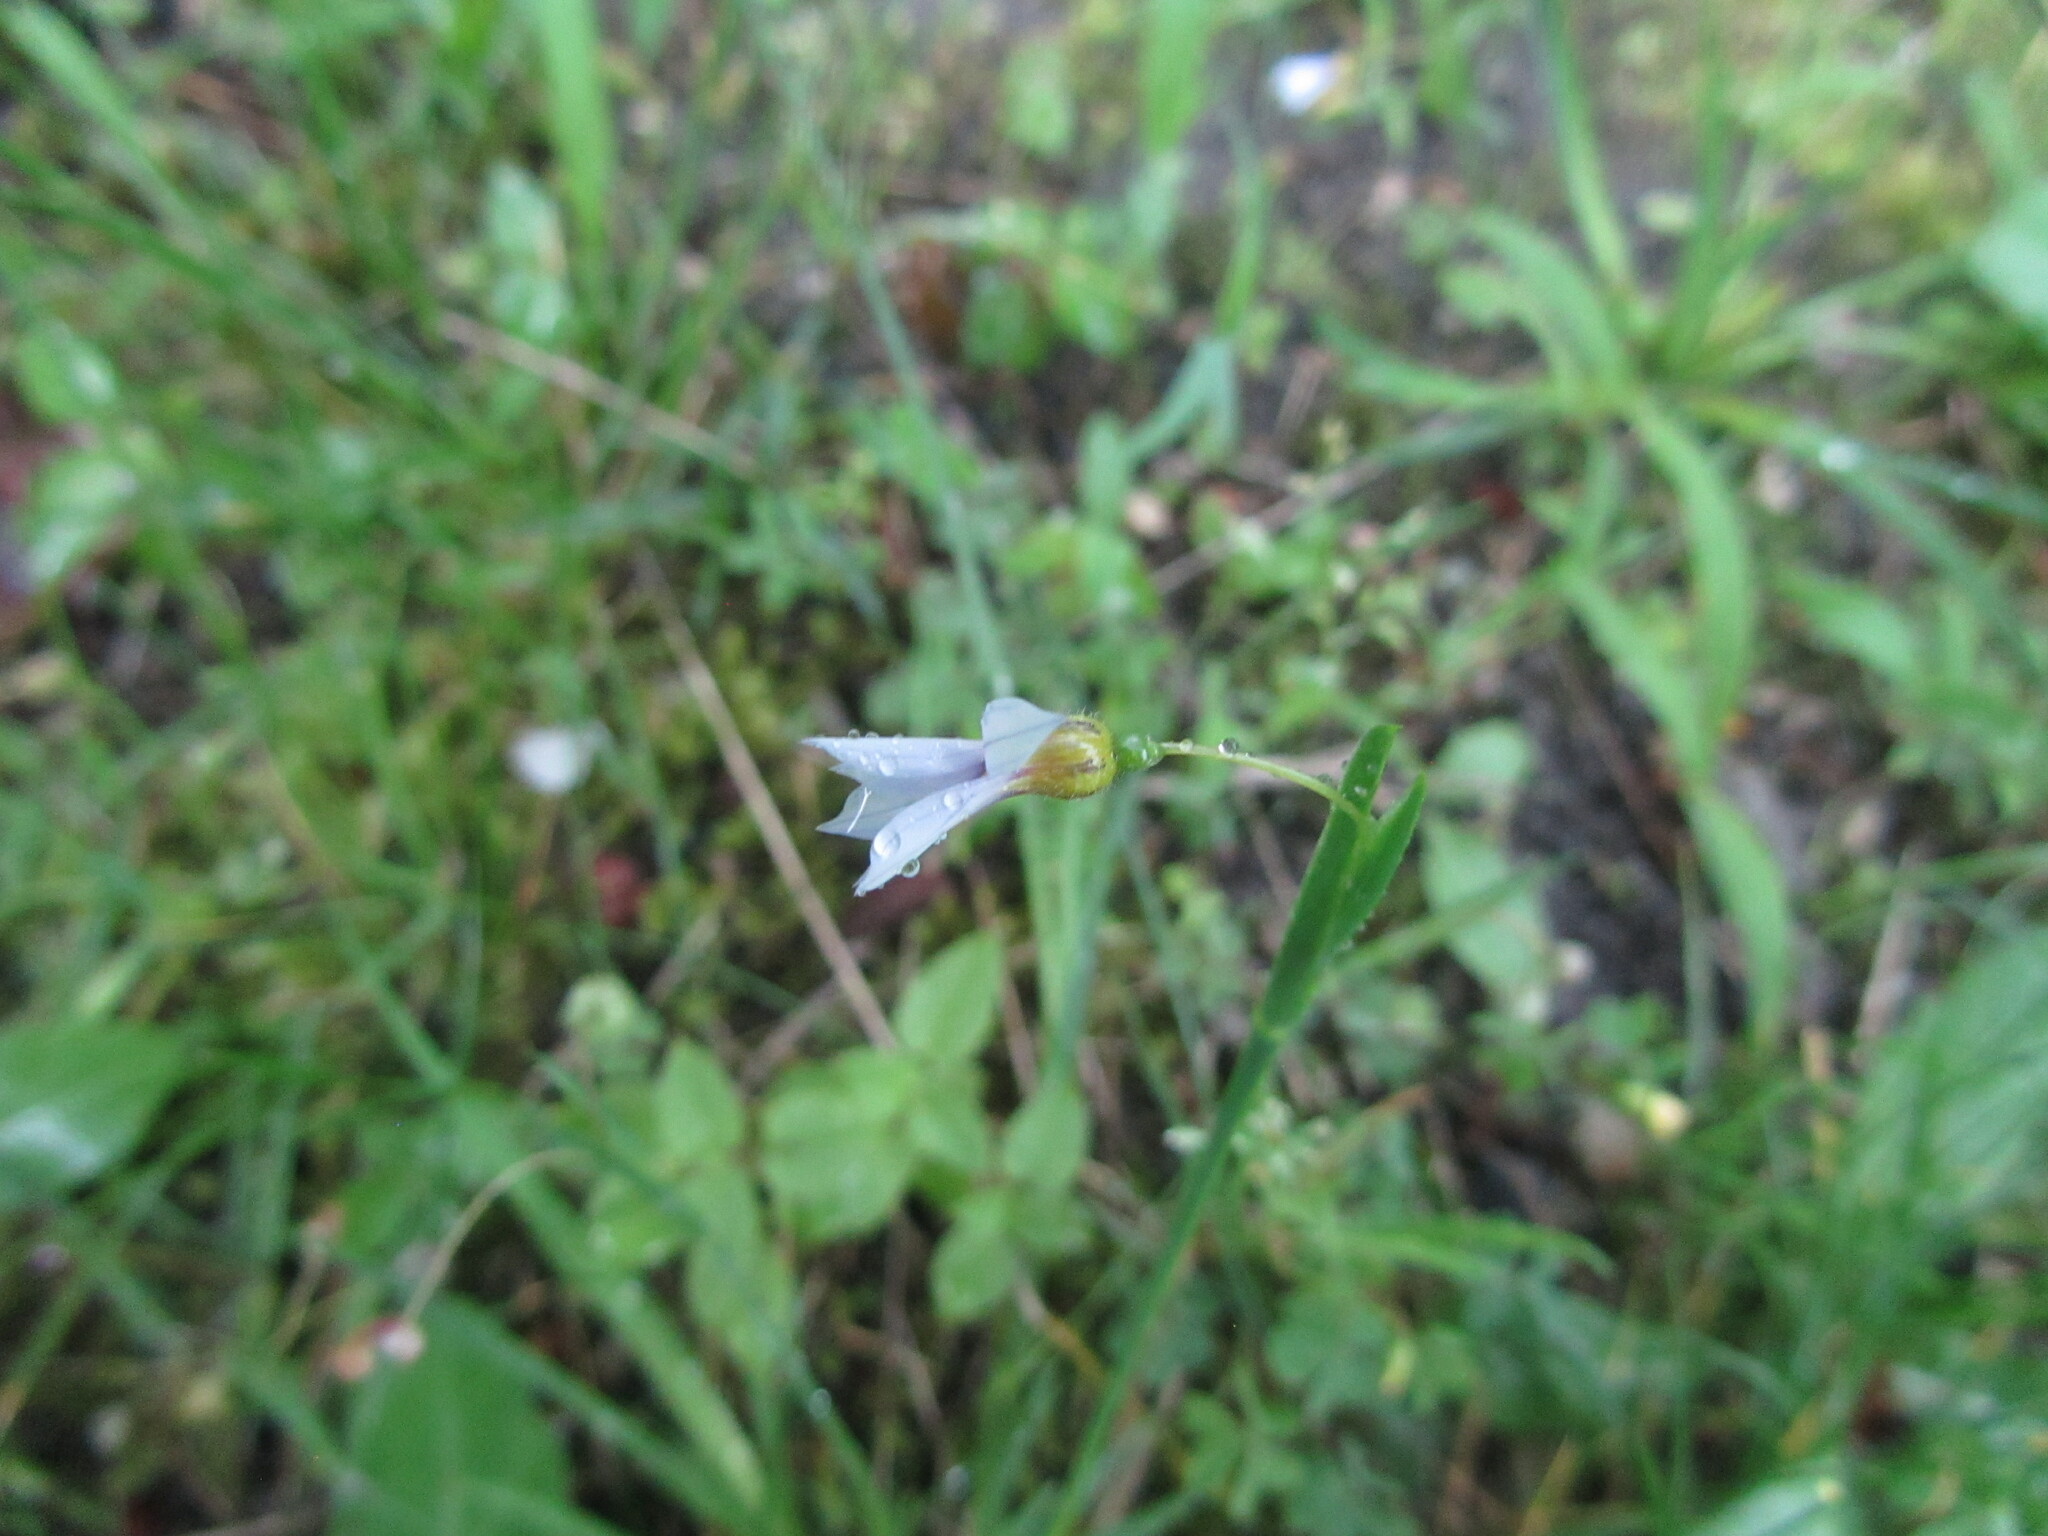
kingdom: Plantae
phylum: Tracheophyta
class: Liliopsida
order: Asparagales
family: Iridaceae
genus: Sisyrinchium
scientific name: Sisyrinchium micranthum
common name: Bermuda pigroot
